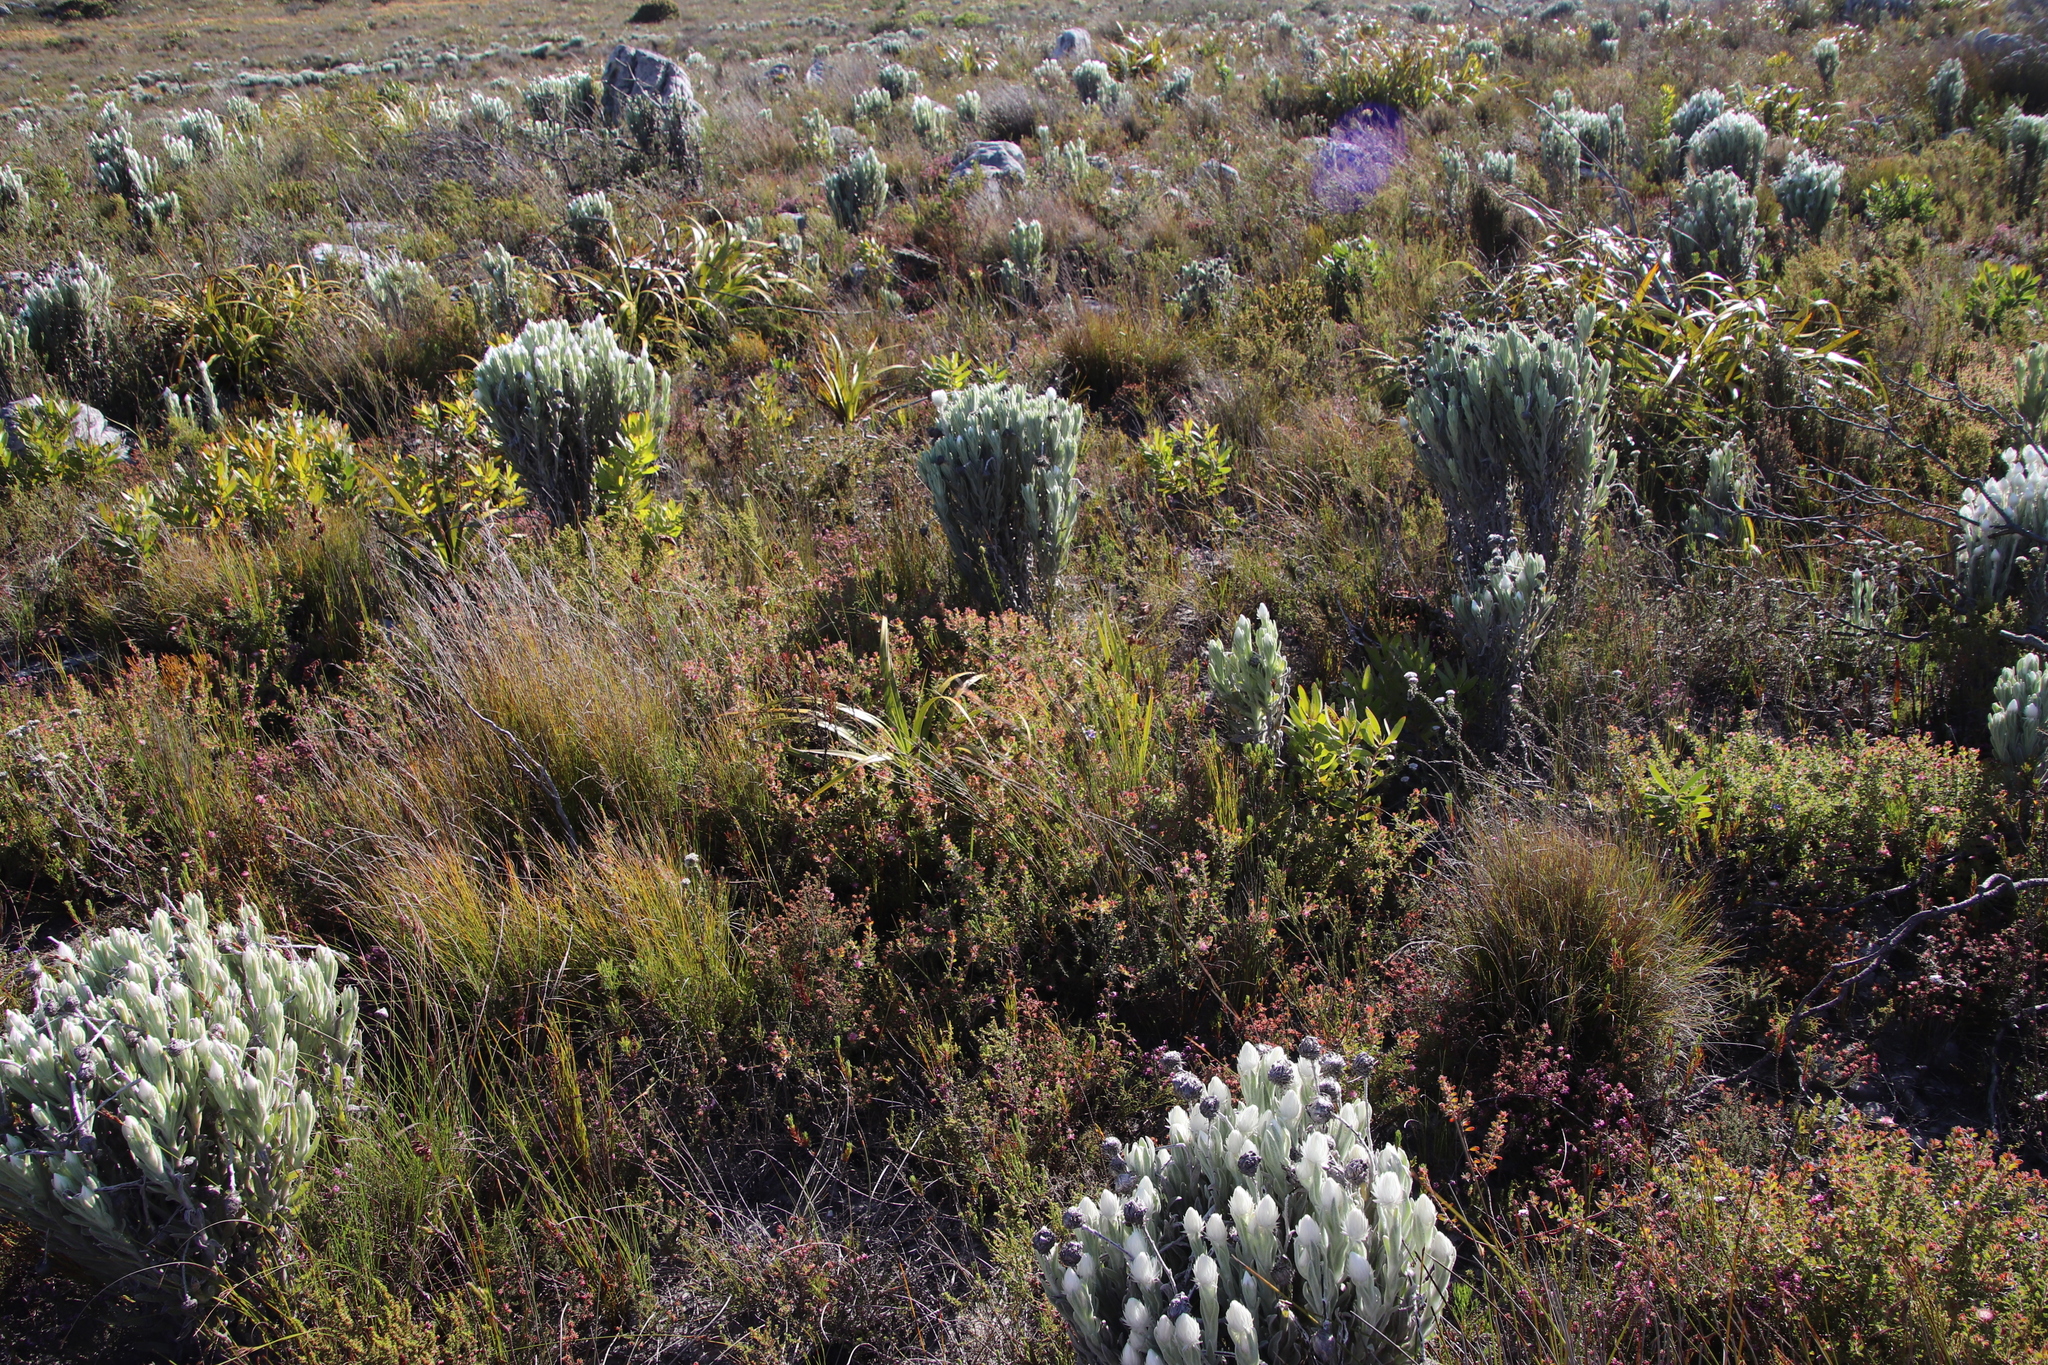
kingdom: Plantae
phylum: Tracheophyta
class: Magnoliopsida
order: Proteales
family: Proteaceae
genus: Diastella
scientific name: Diastella divaricata
